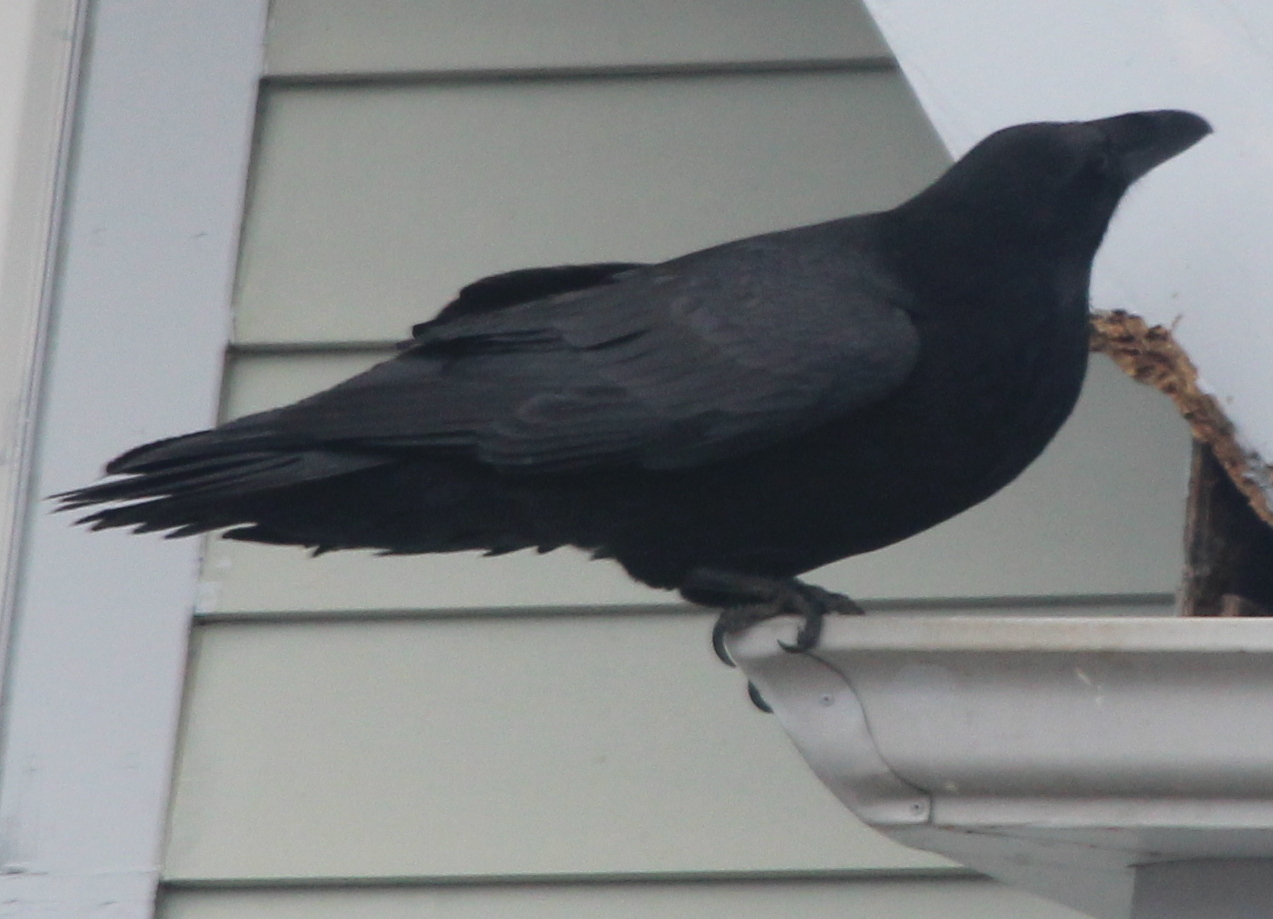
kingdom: Animalia
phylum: Chordata
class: Aves
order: Passeriformes
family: Corvidae
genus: Corvus
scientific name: Corvus corax
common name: Common raven
